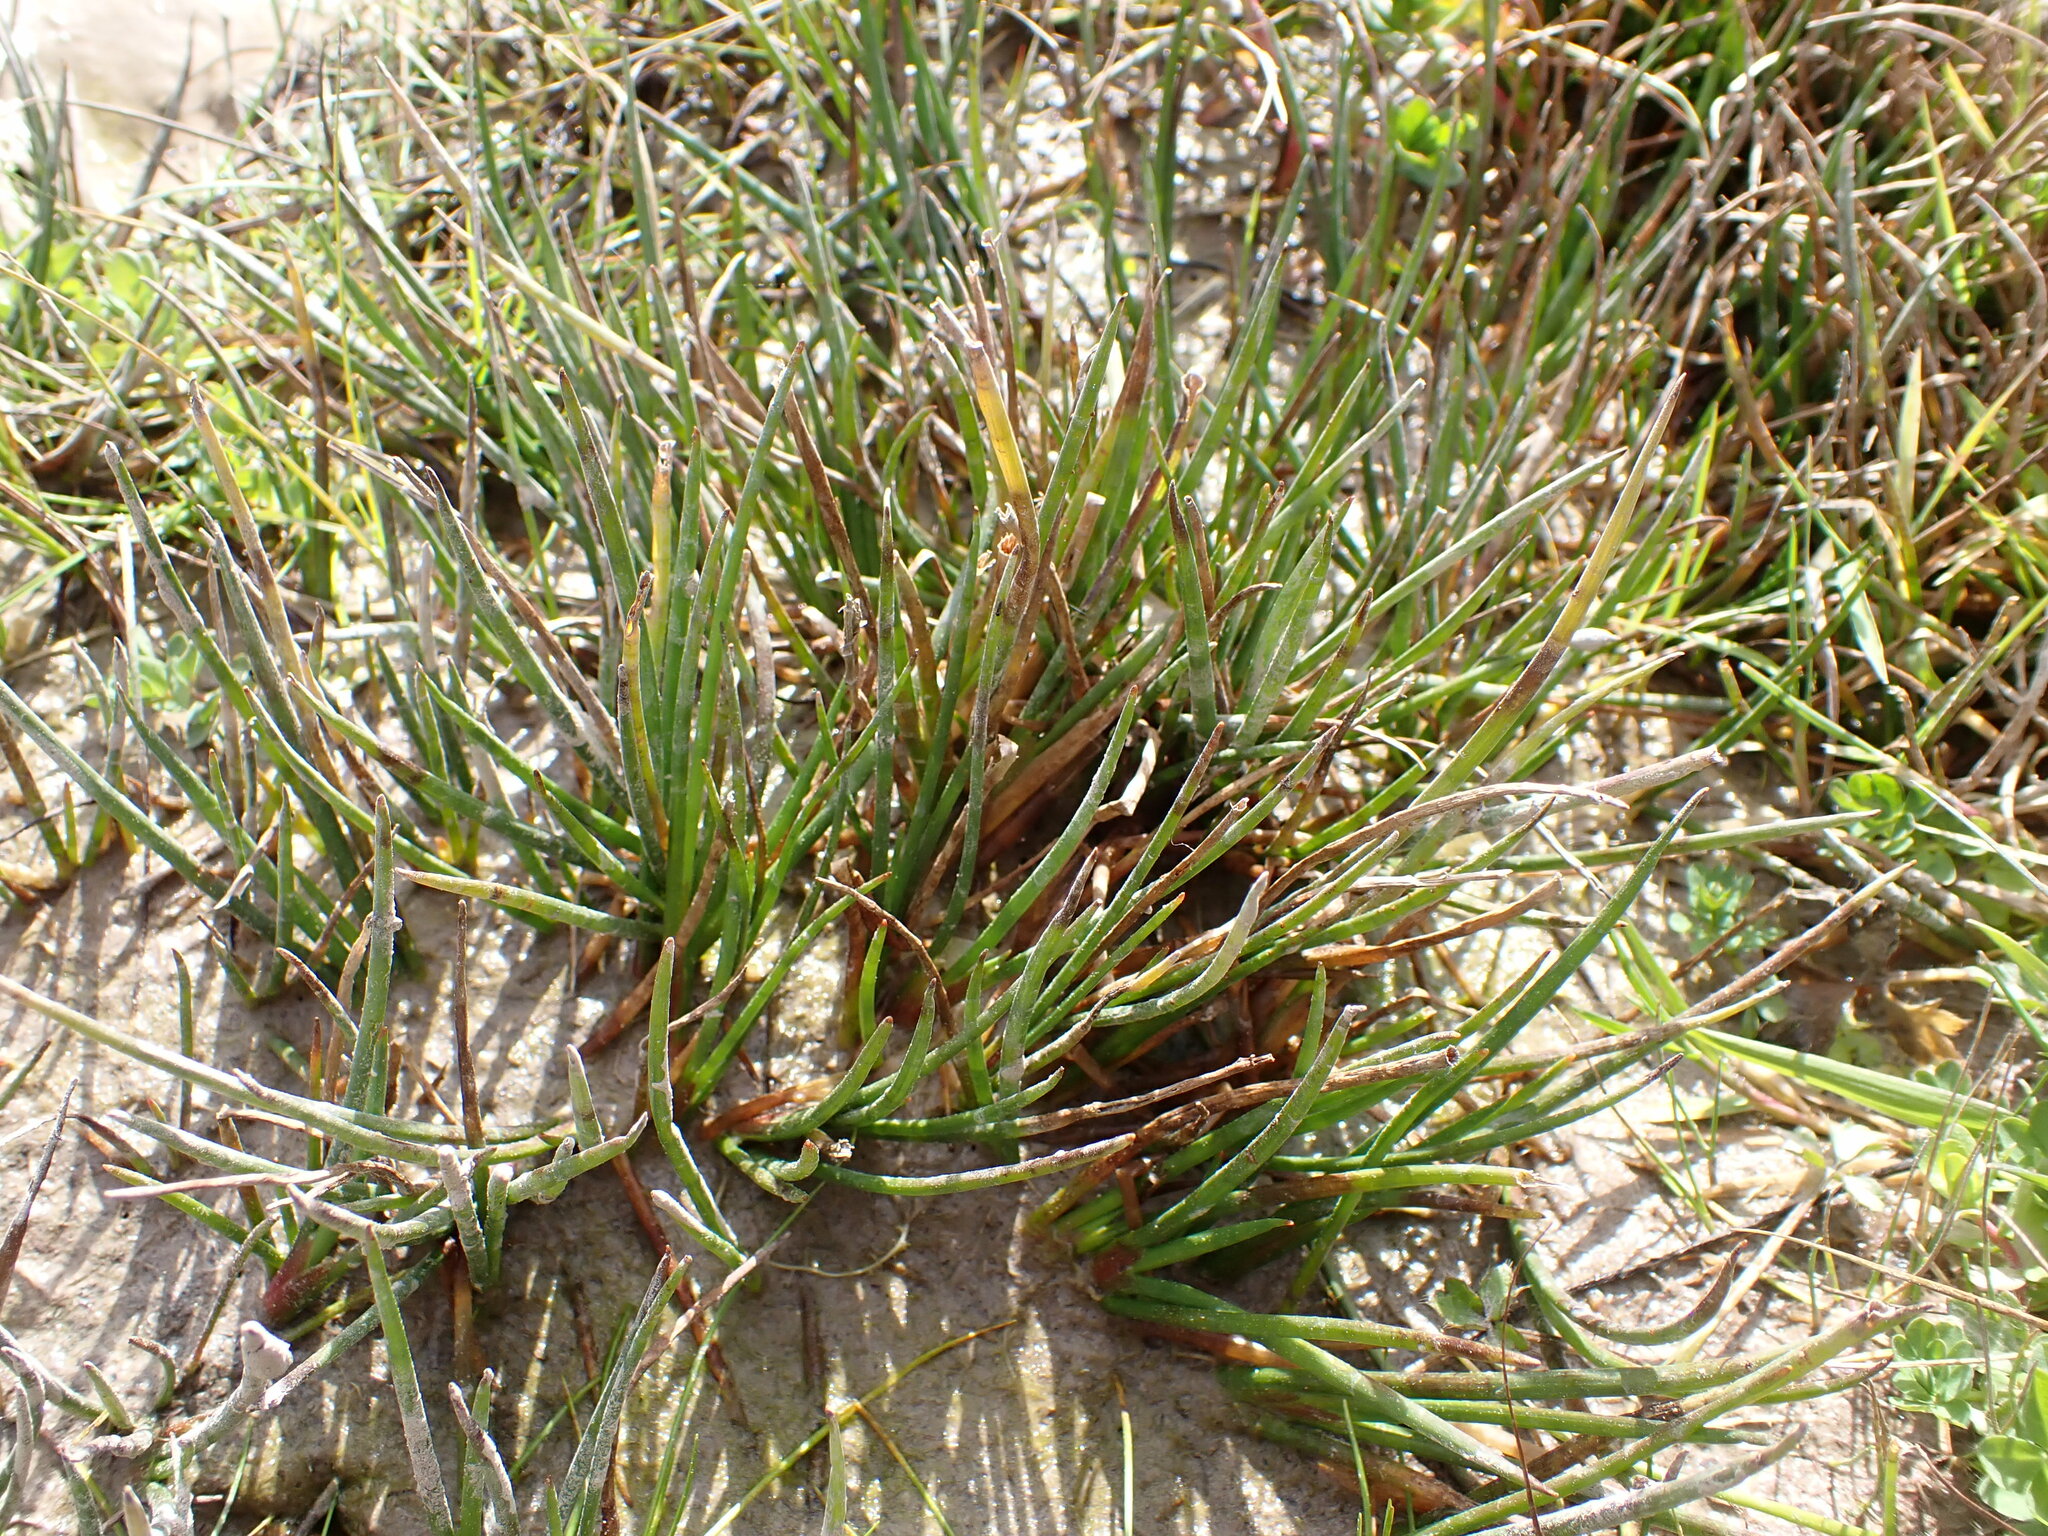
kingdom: Plantae
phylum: Tracheophyta
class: Liliopsida
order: Poales
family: Juncaceae
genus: Juncus
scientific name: Juncus articulatus
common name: Jointed rush
